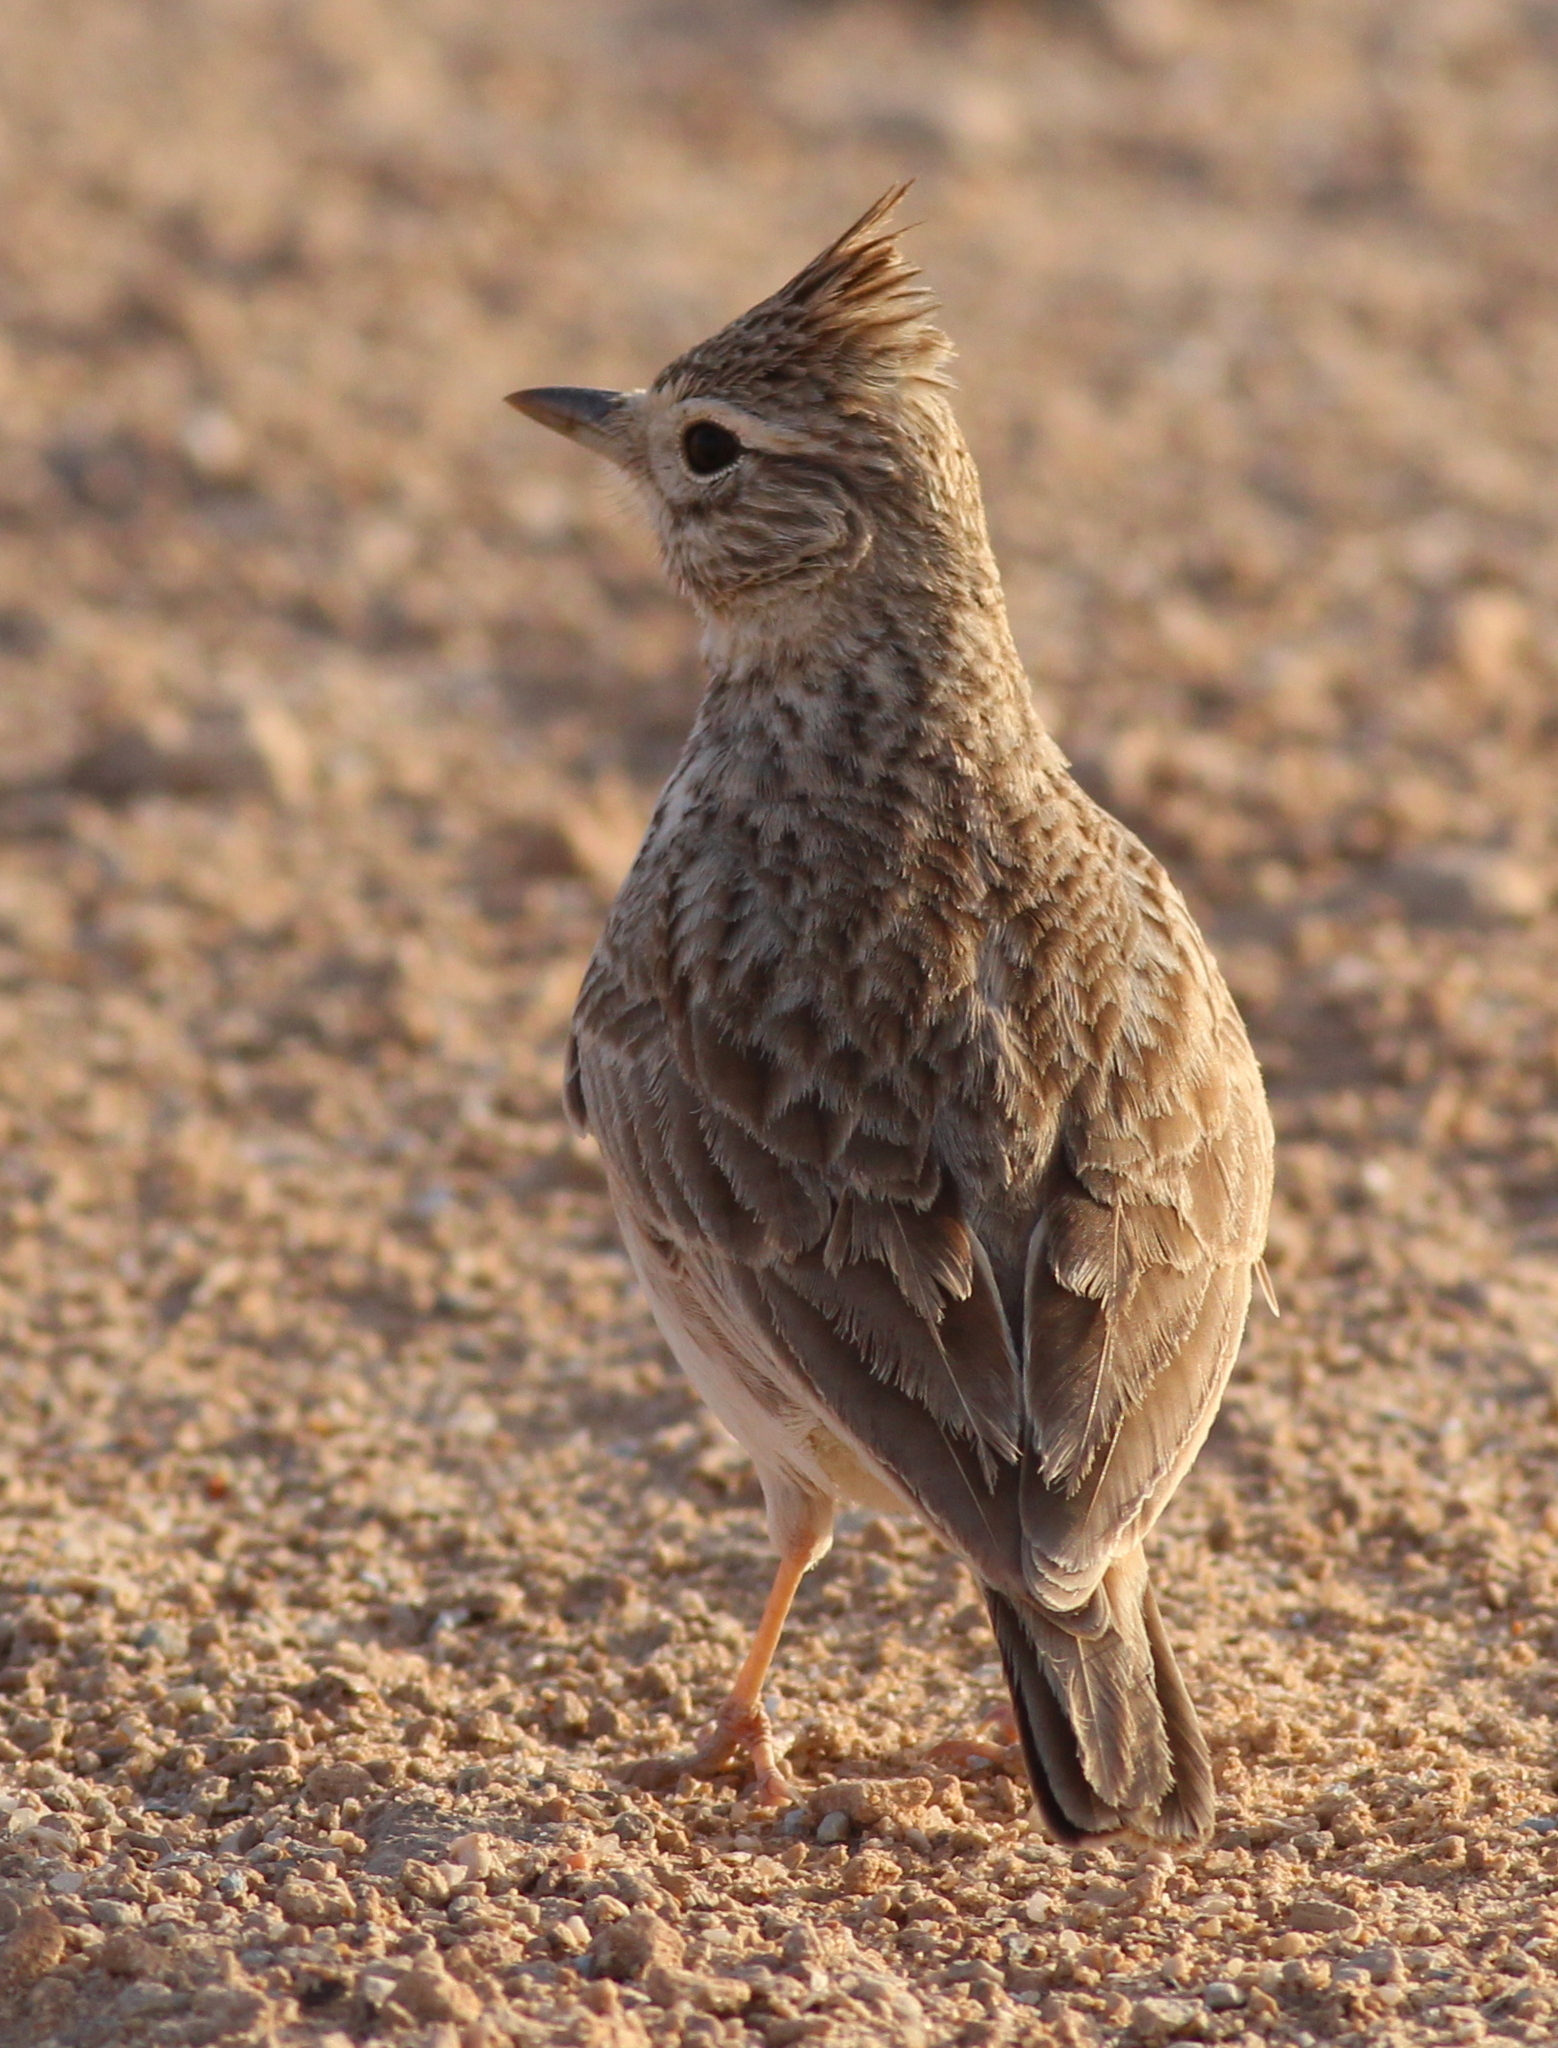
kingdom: Animalia
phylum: Chordata
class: Aves
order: Passeriformes
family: Alaudidae
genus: Galerida
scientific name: Galerida theklae
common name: Thekla lark
